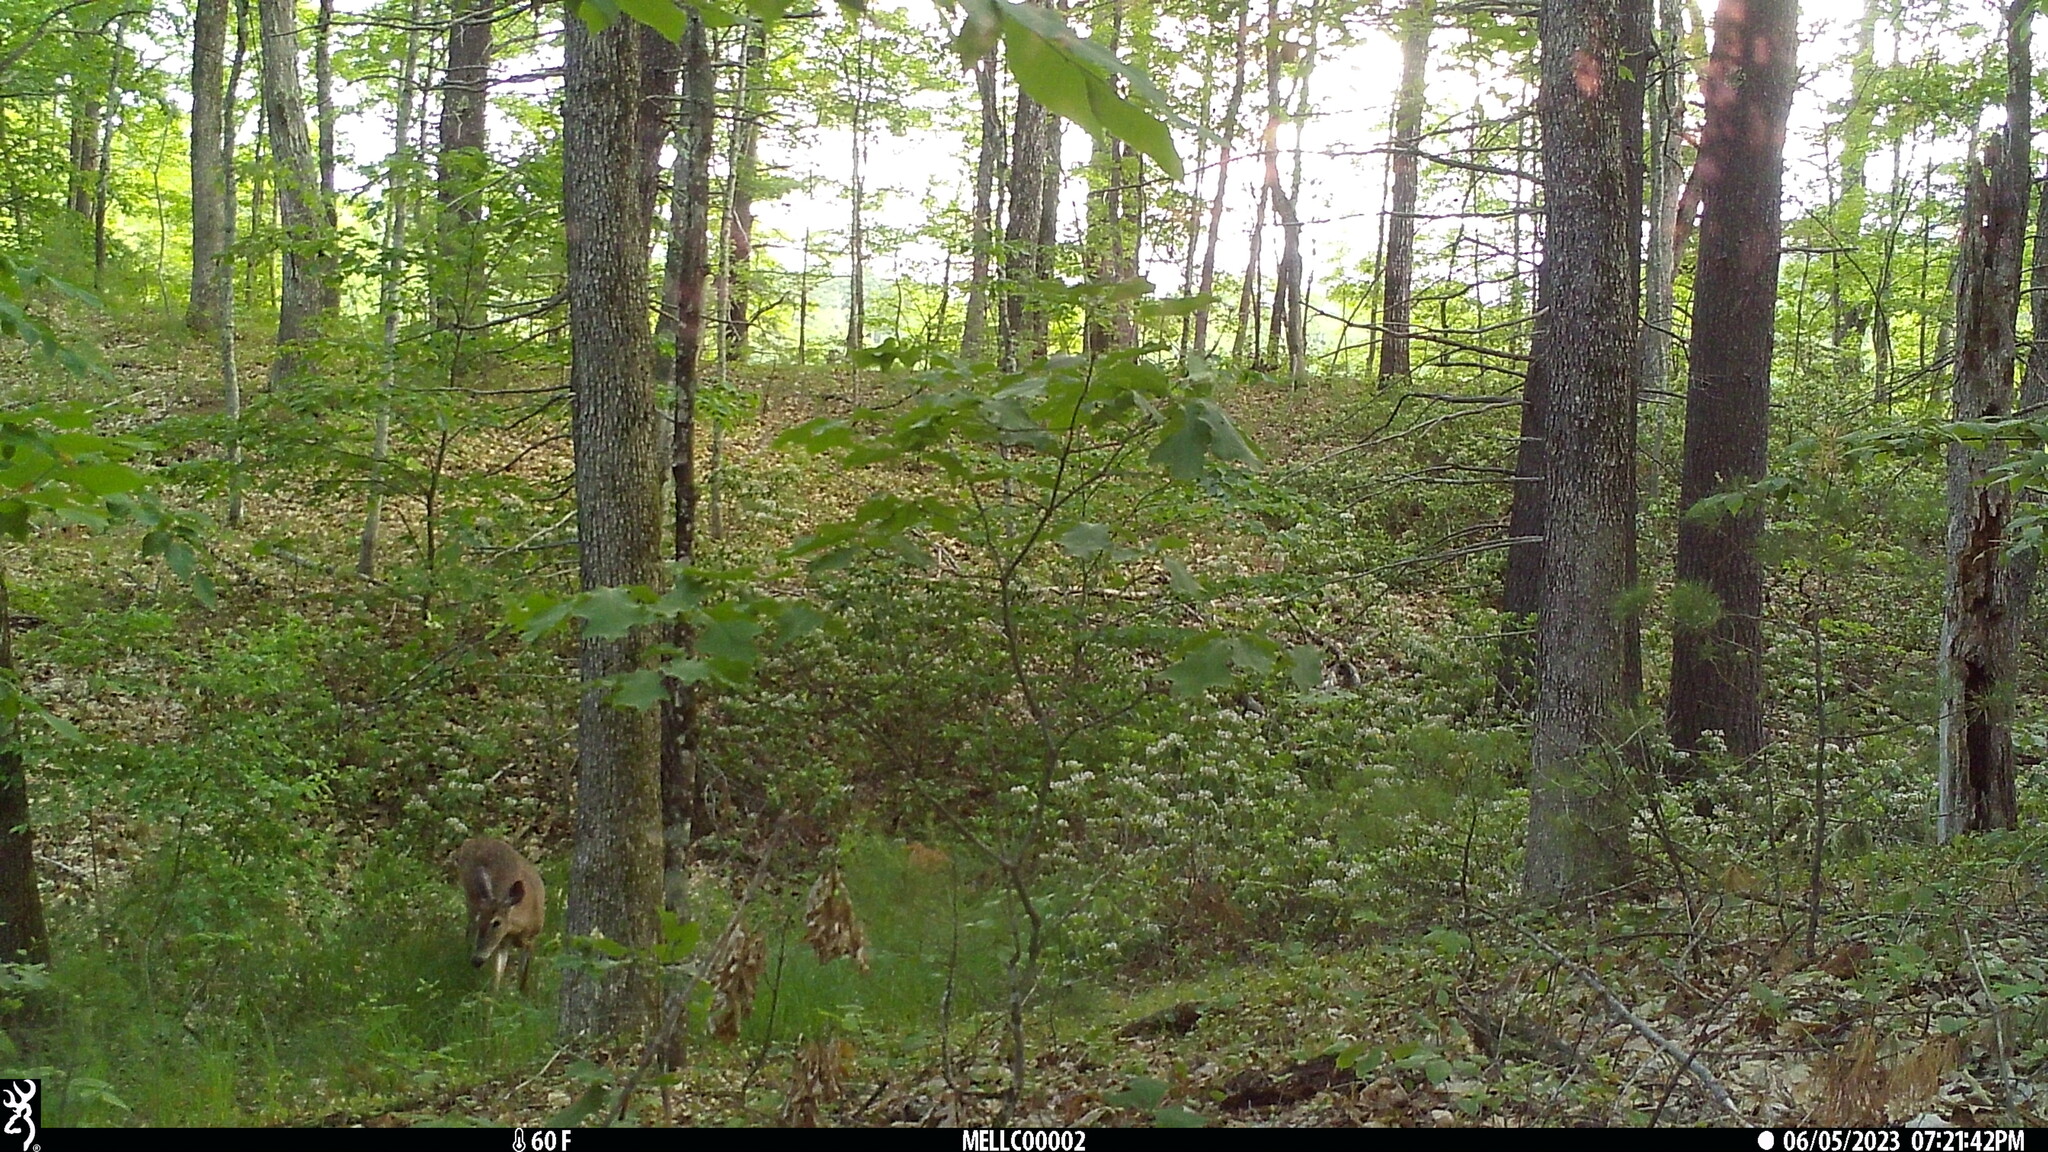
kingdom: Animalia
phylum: Chordata
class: Mammalia
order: Artiodactyla
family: Cervidae
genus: Odocoileus
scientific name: Odocoileus virginianus
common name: White-tailed deer
